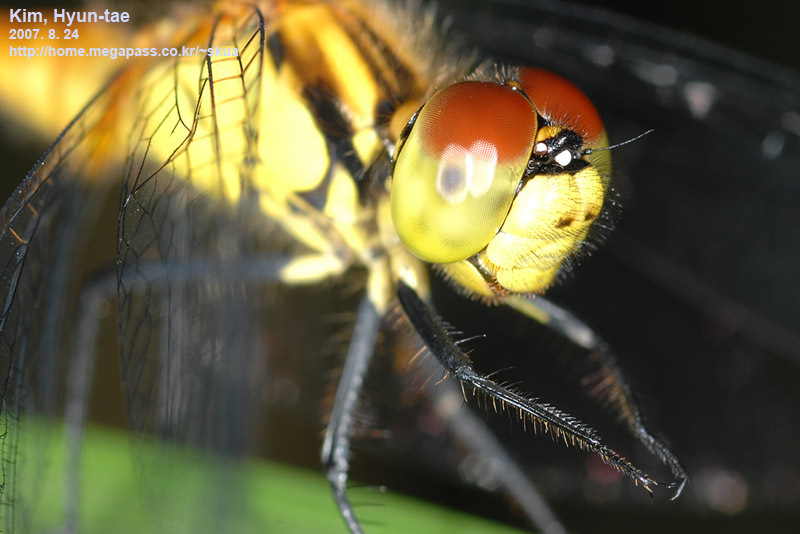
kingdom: Animalia
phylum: Arthropoda
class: Insecta
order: Odonata
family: Libellulidae
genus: Sympetrum
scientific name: Sympetrum parvulum
